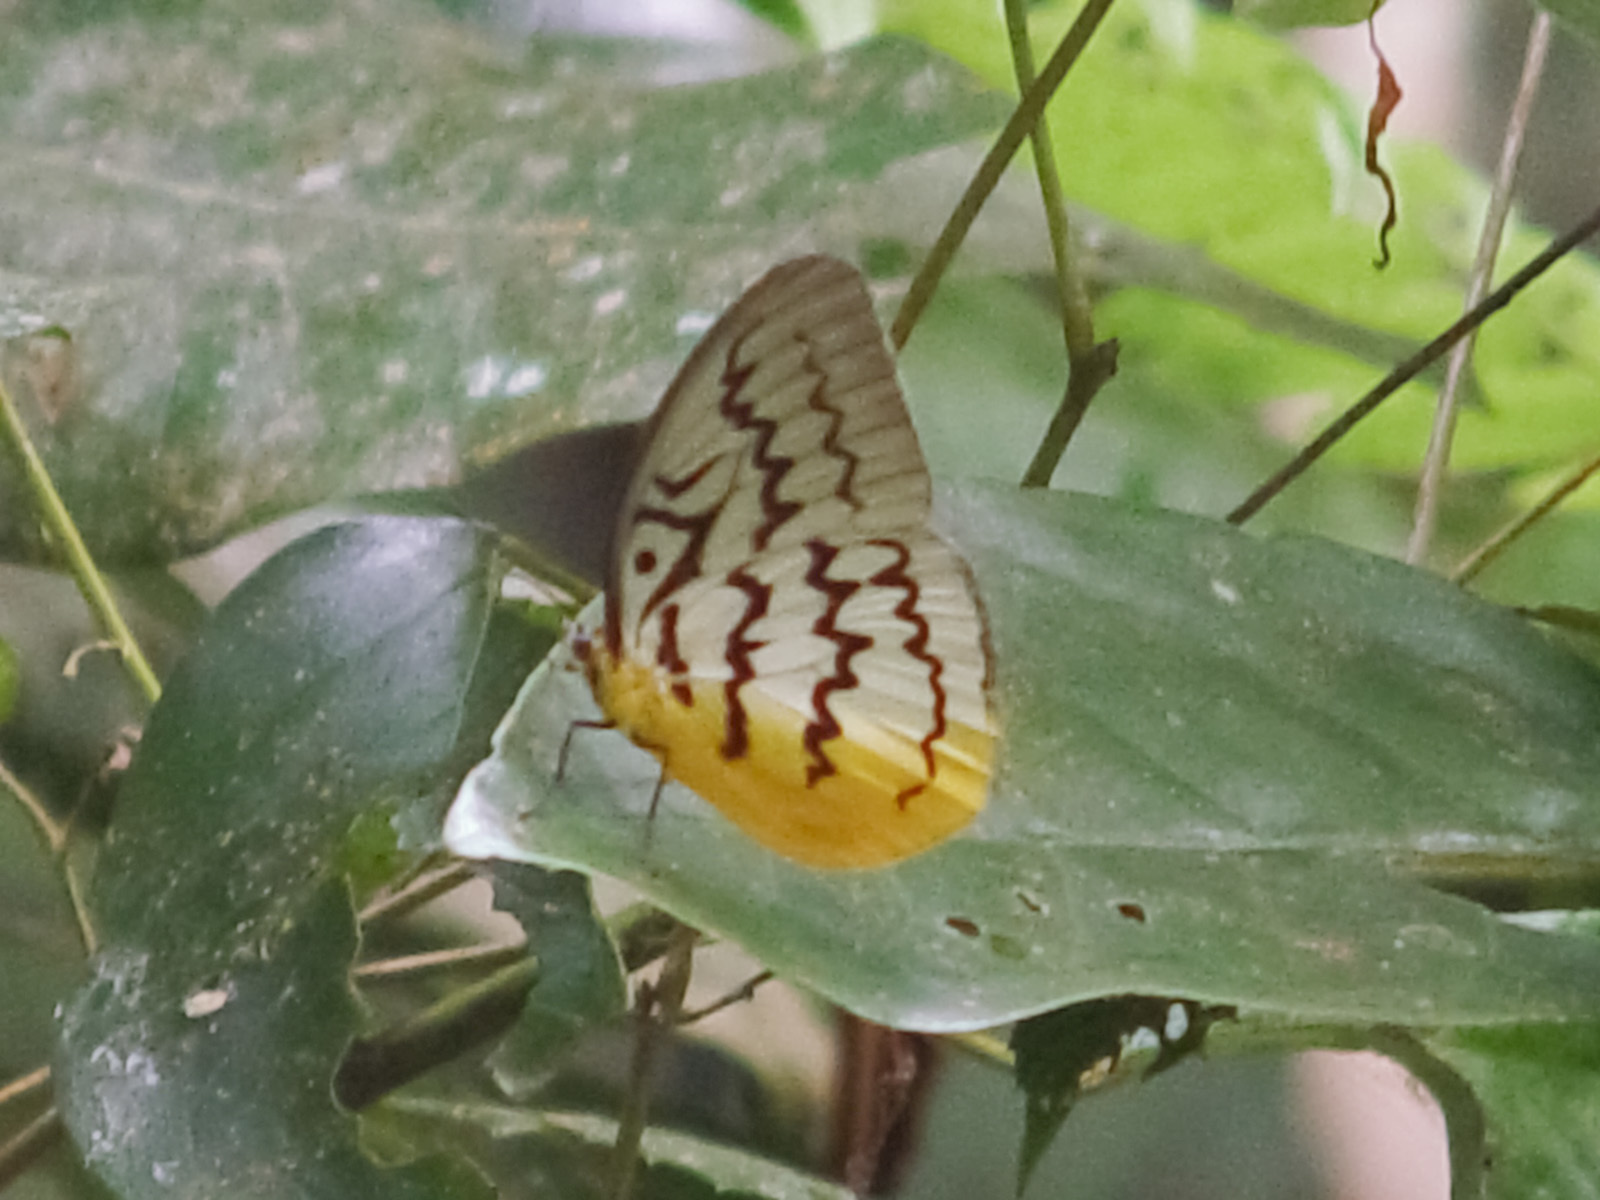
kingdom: Animalia
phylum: Arthropoda
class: Insecta
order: Lepidoptera
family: Nymphalidae
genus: Faunis
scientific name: Faunis Melanocyma faunula
